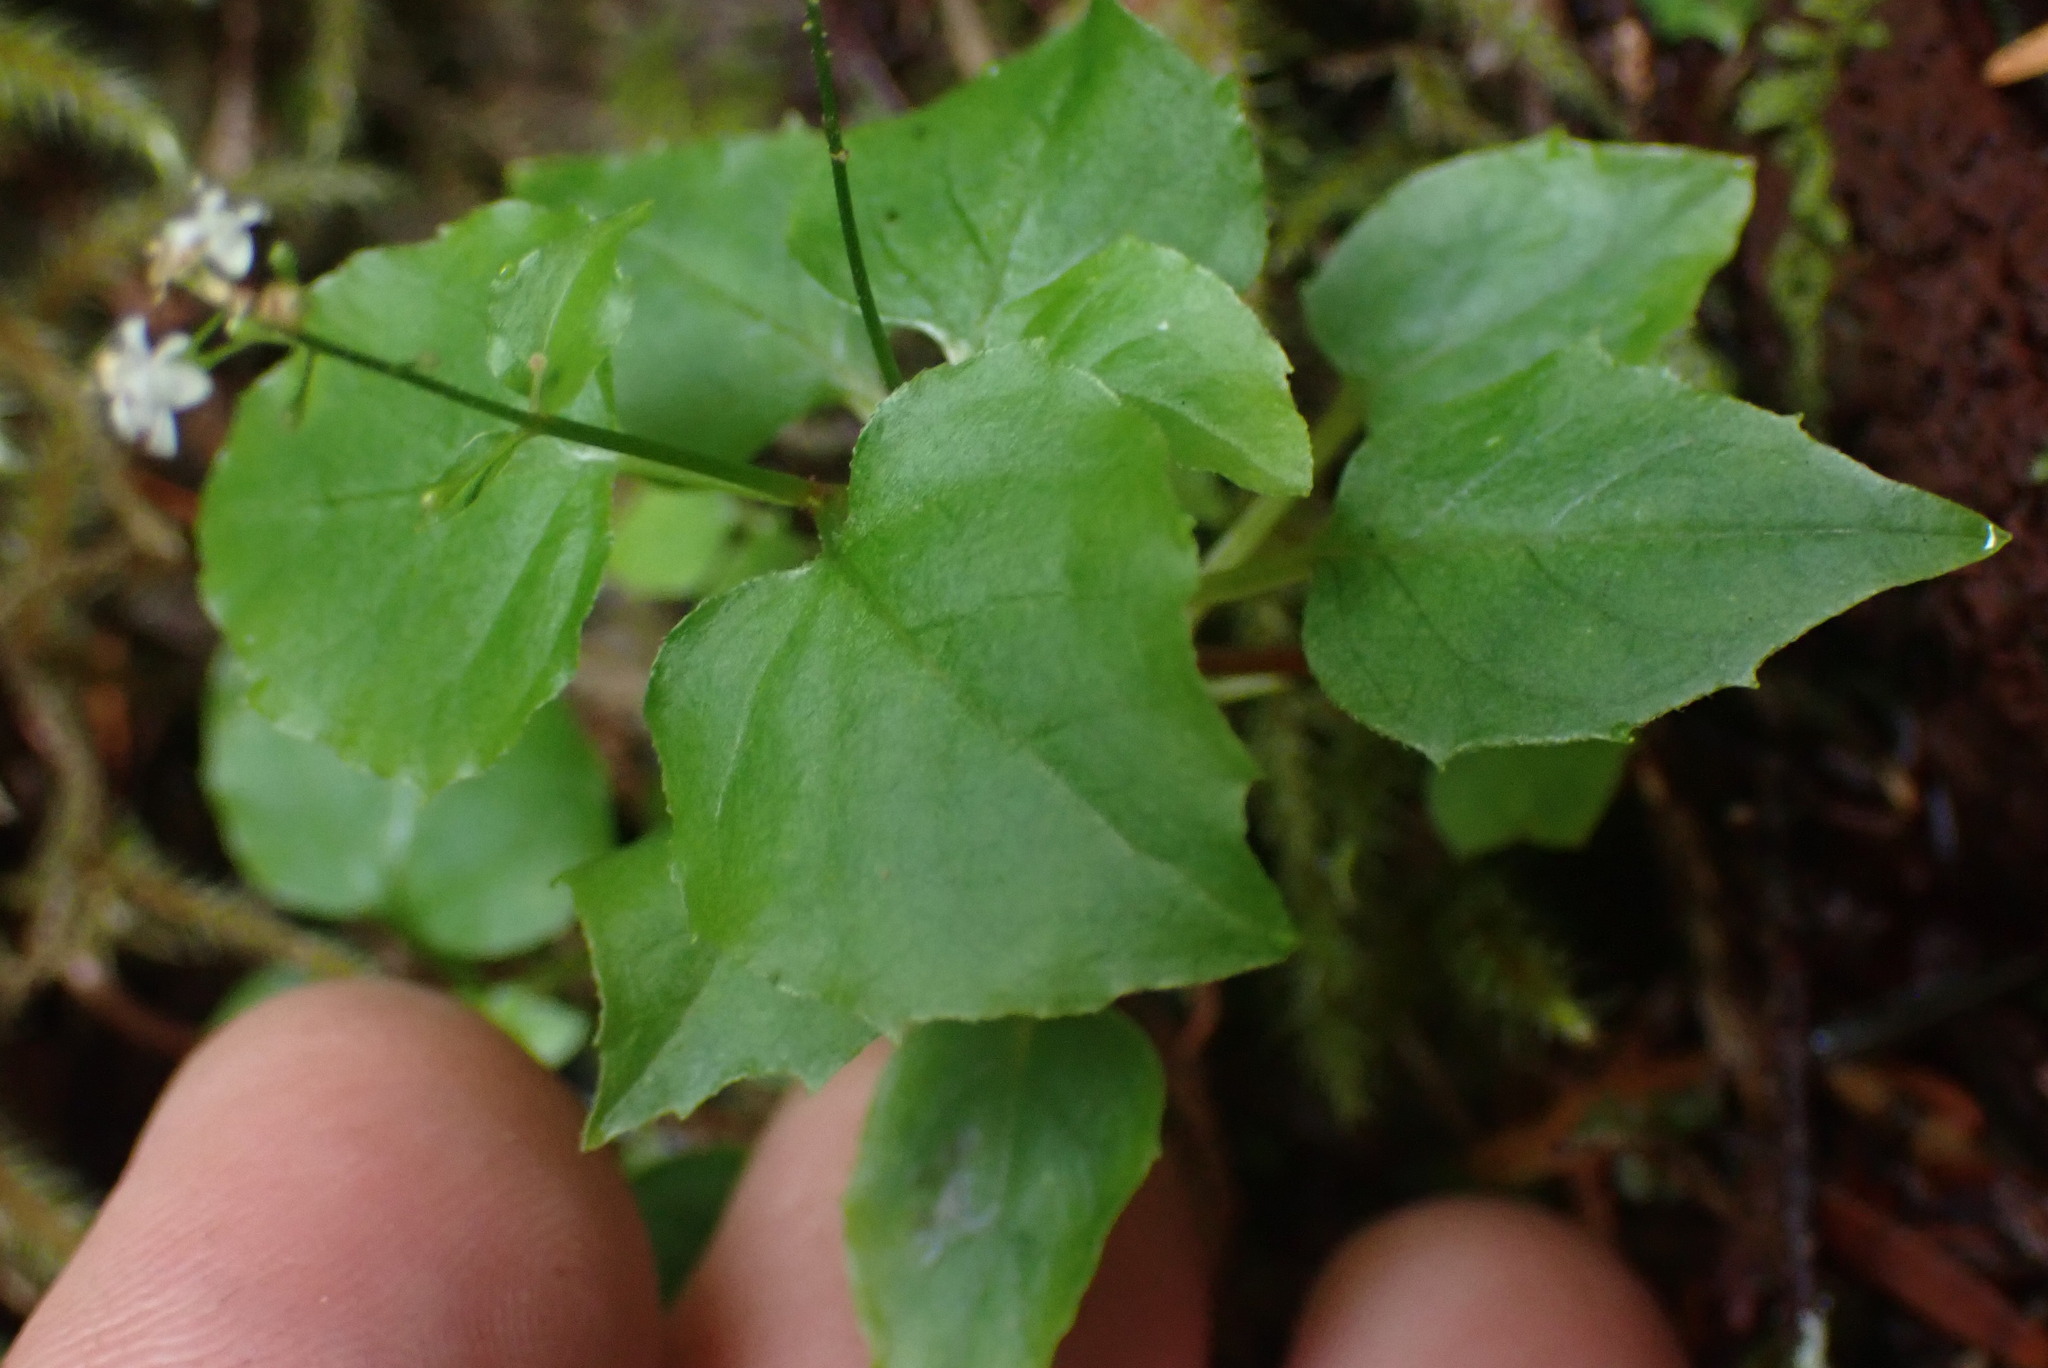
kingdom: Plantae
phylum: Tracheophyta
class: Magnoliopsida
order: Myrtales
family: Onagraceae
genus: Circaea
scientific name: Circaea alpina
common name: Alpine enchanter's-nightshade
